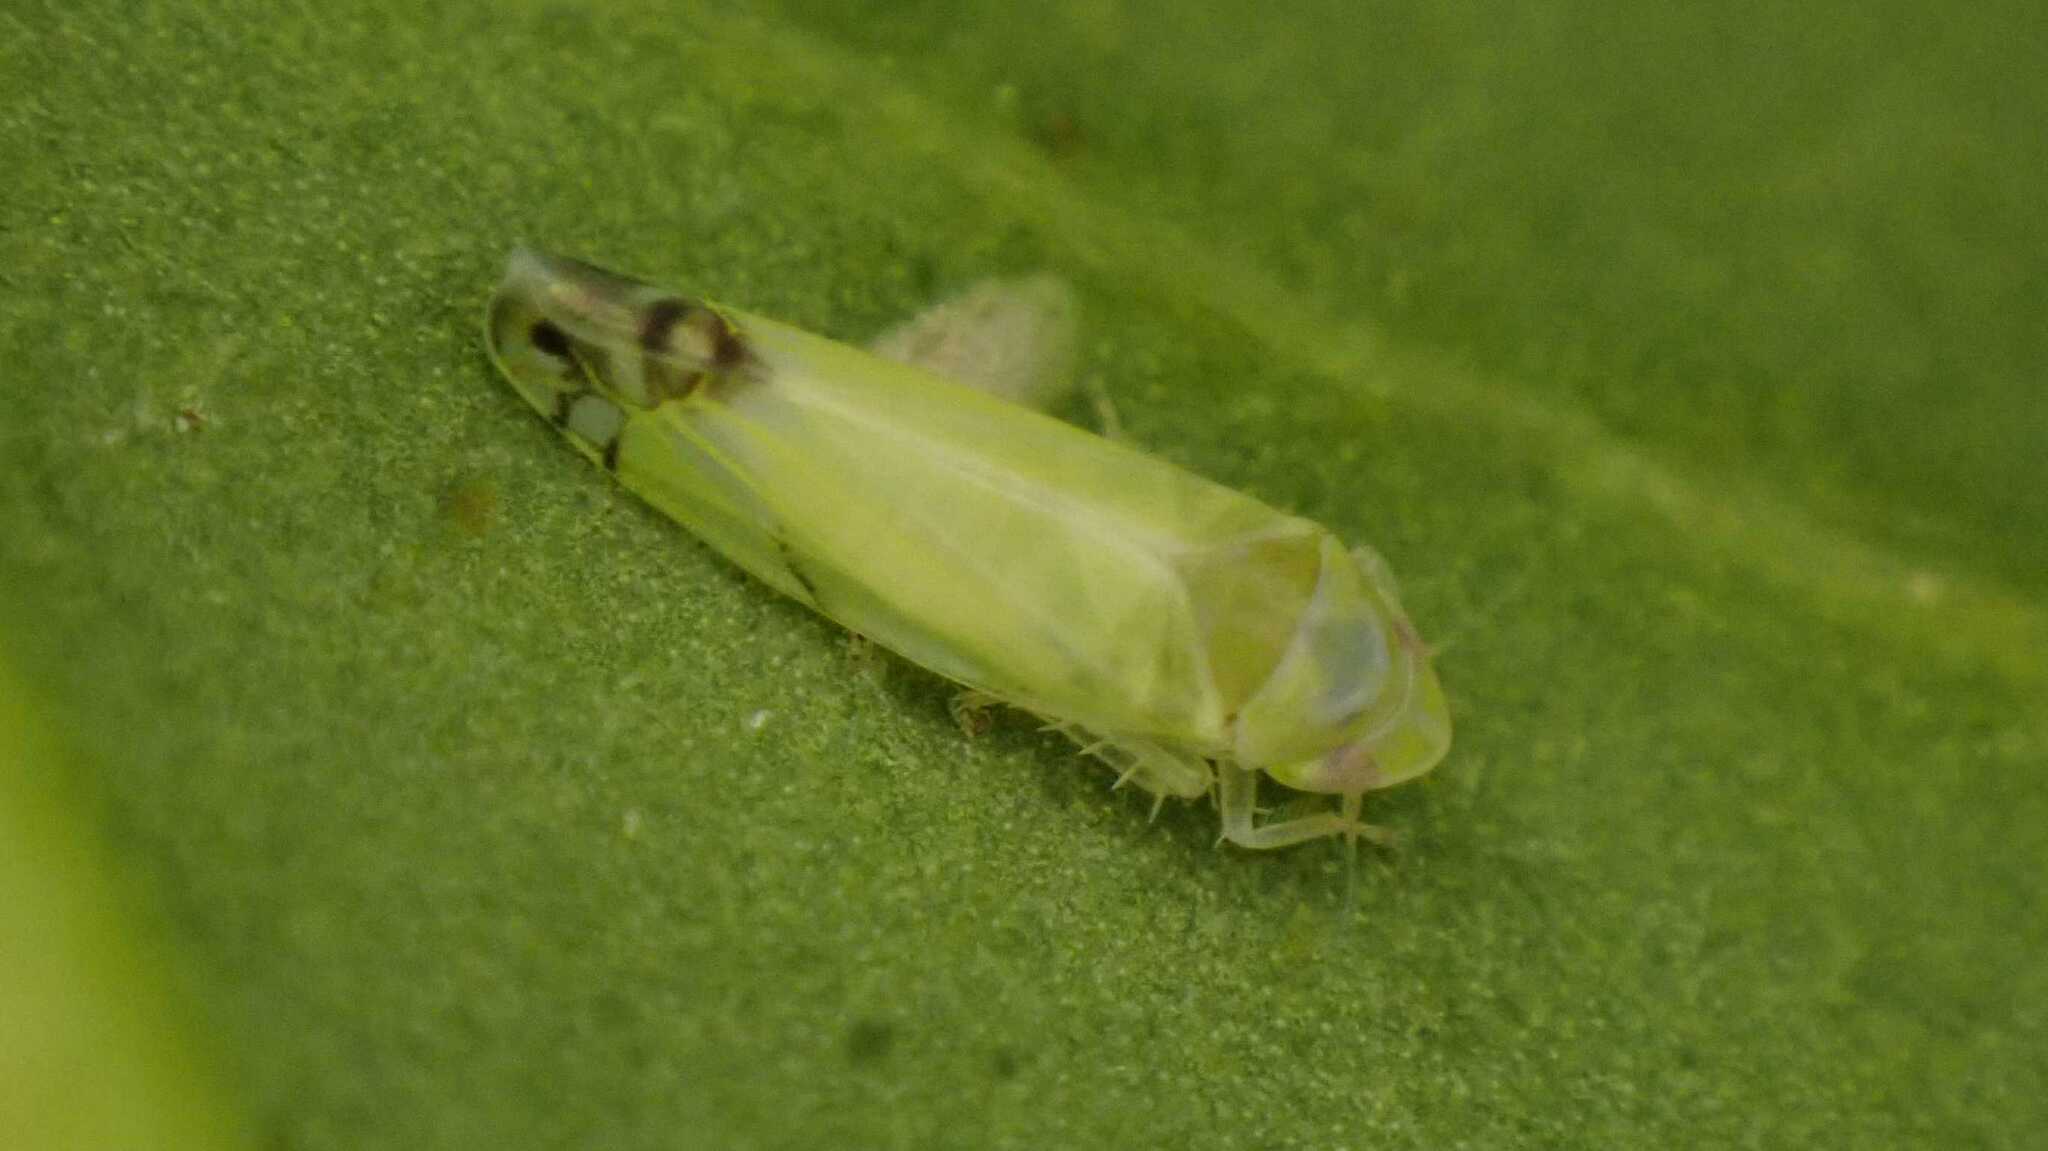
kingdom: Animalia
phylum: Arthropoda
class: Insecta
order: Hemiptera
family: Cicadellidae
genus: Zyginella
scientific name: Zyginella pulchra
